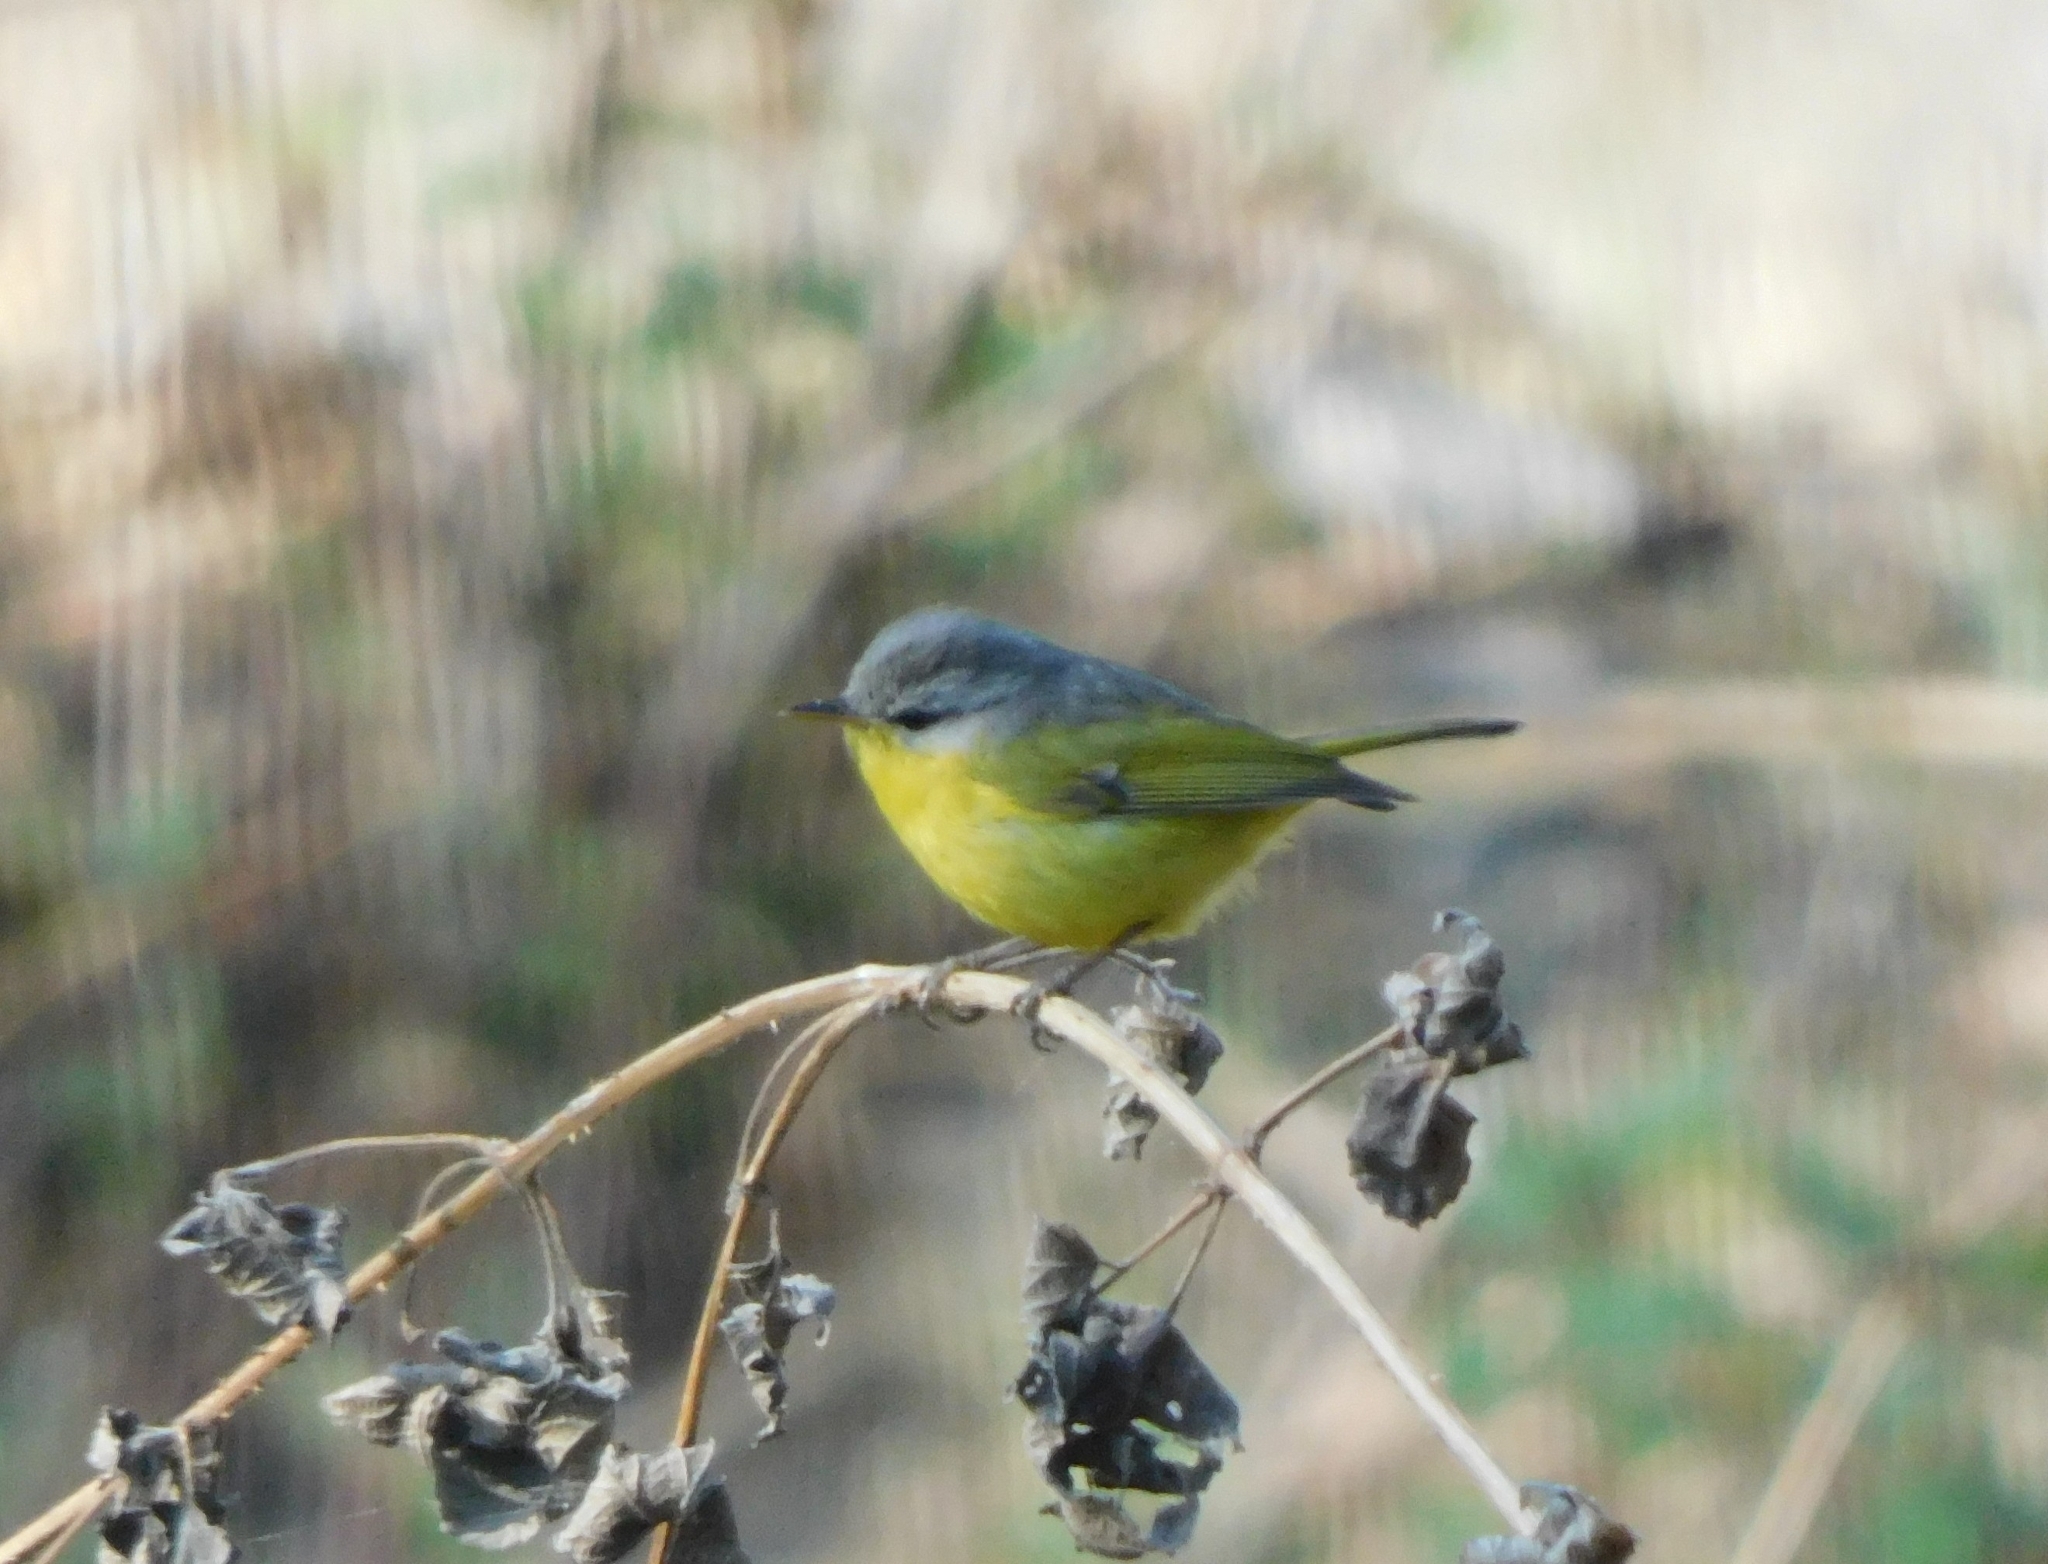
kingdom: Animalia
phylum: Chordata
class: Aves
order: Passeriformes
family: Phylloscopidae
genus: Phylloscopus
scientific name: Phylloscopus xanthoschistos
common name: Grey-hooded warbler
